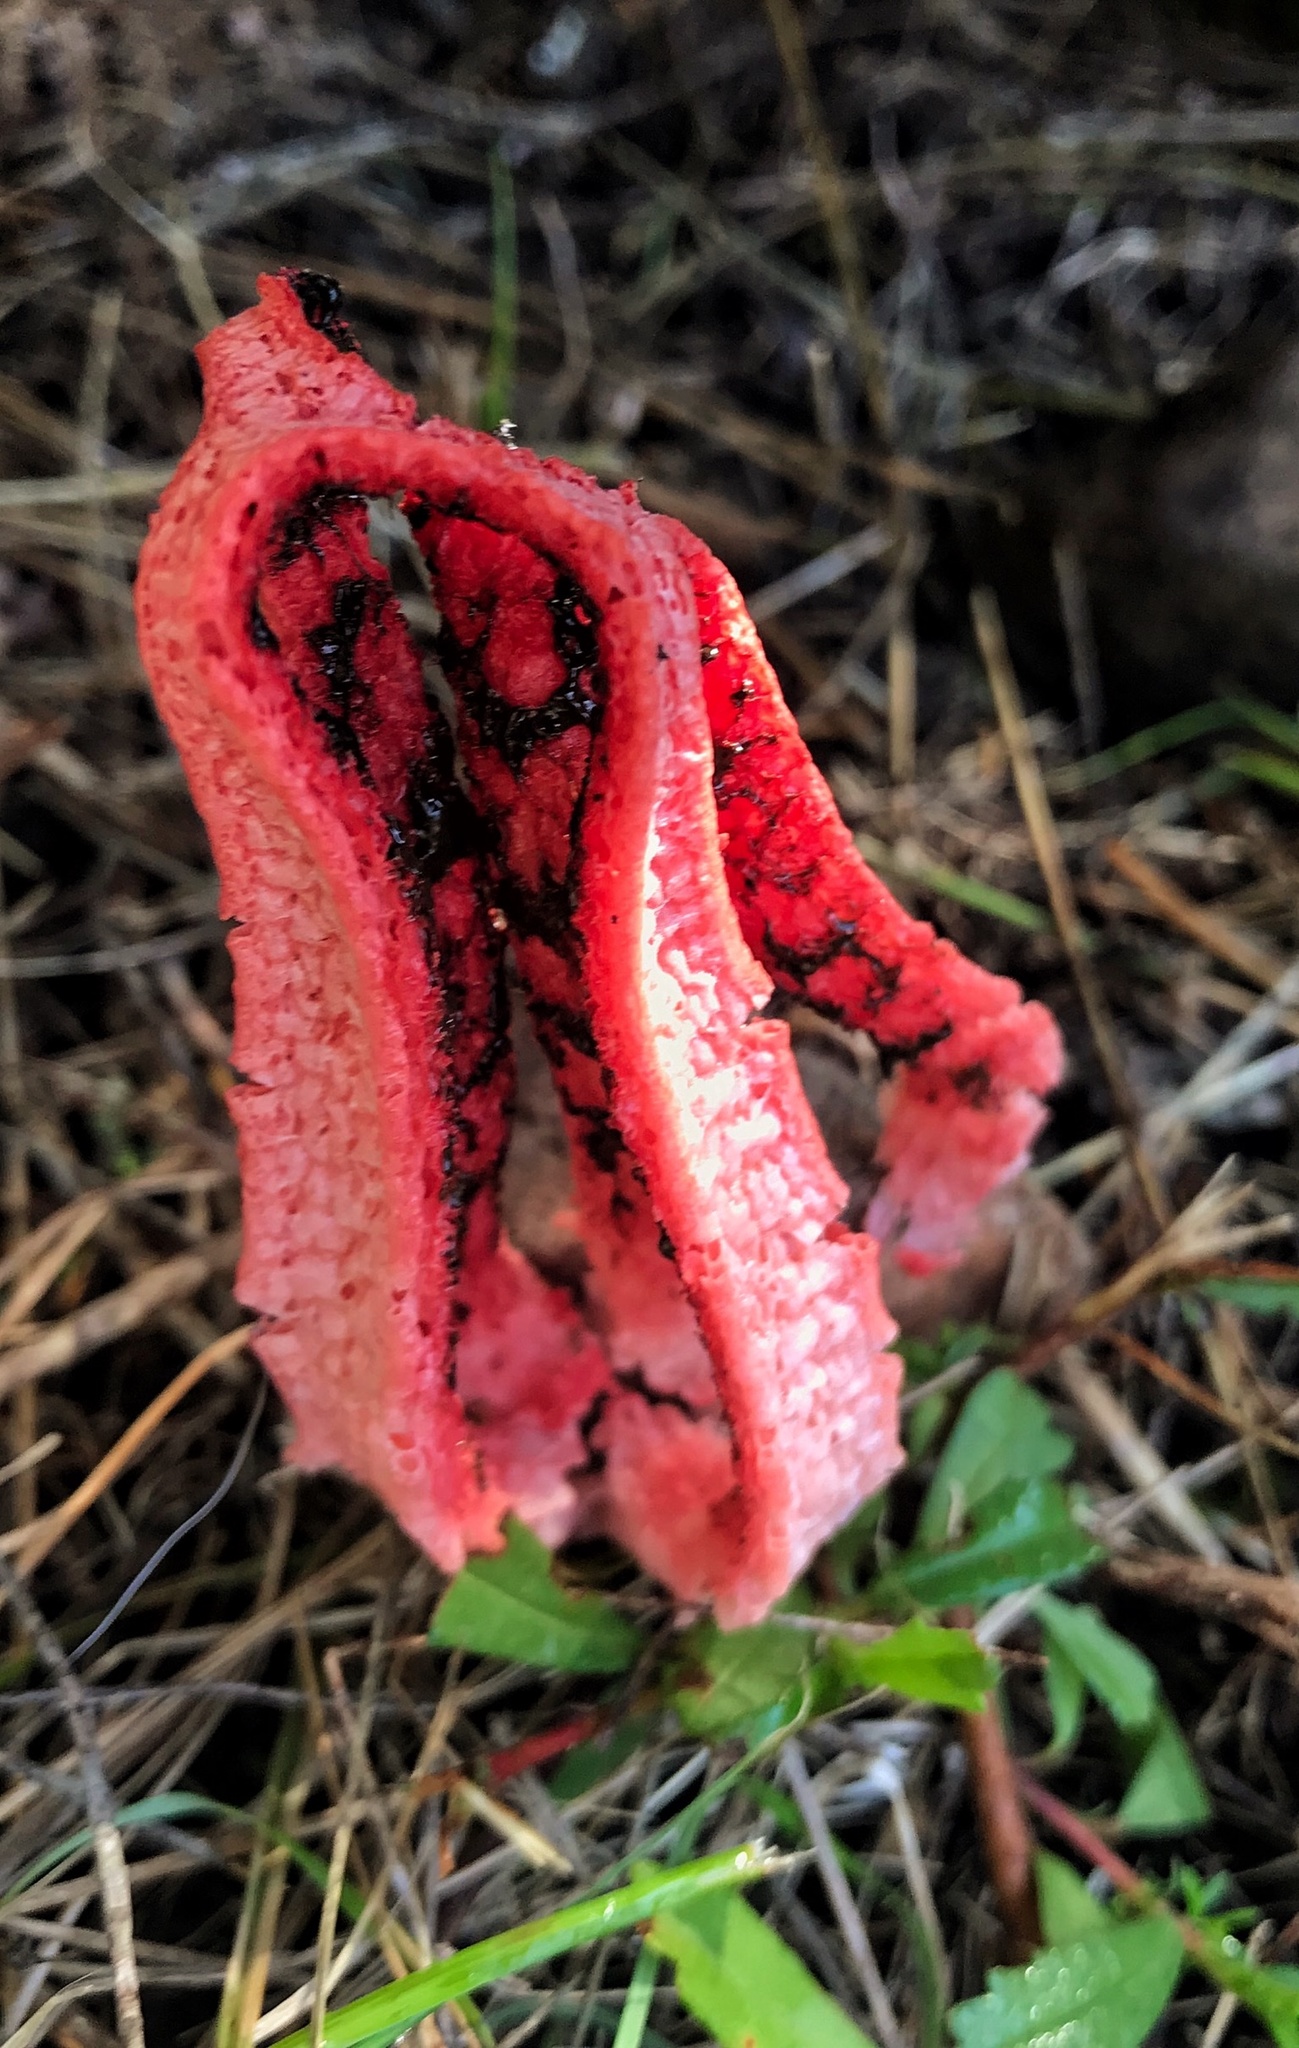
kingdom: Fungi
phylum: Basidiomycota
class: Agaricomycetes
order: Phallales
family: Phallaceae
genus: Clathrus
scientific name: Clathrus archeri
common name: Devil's fingers
